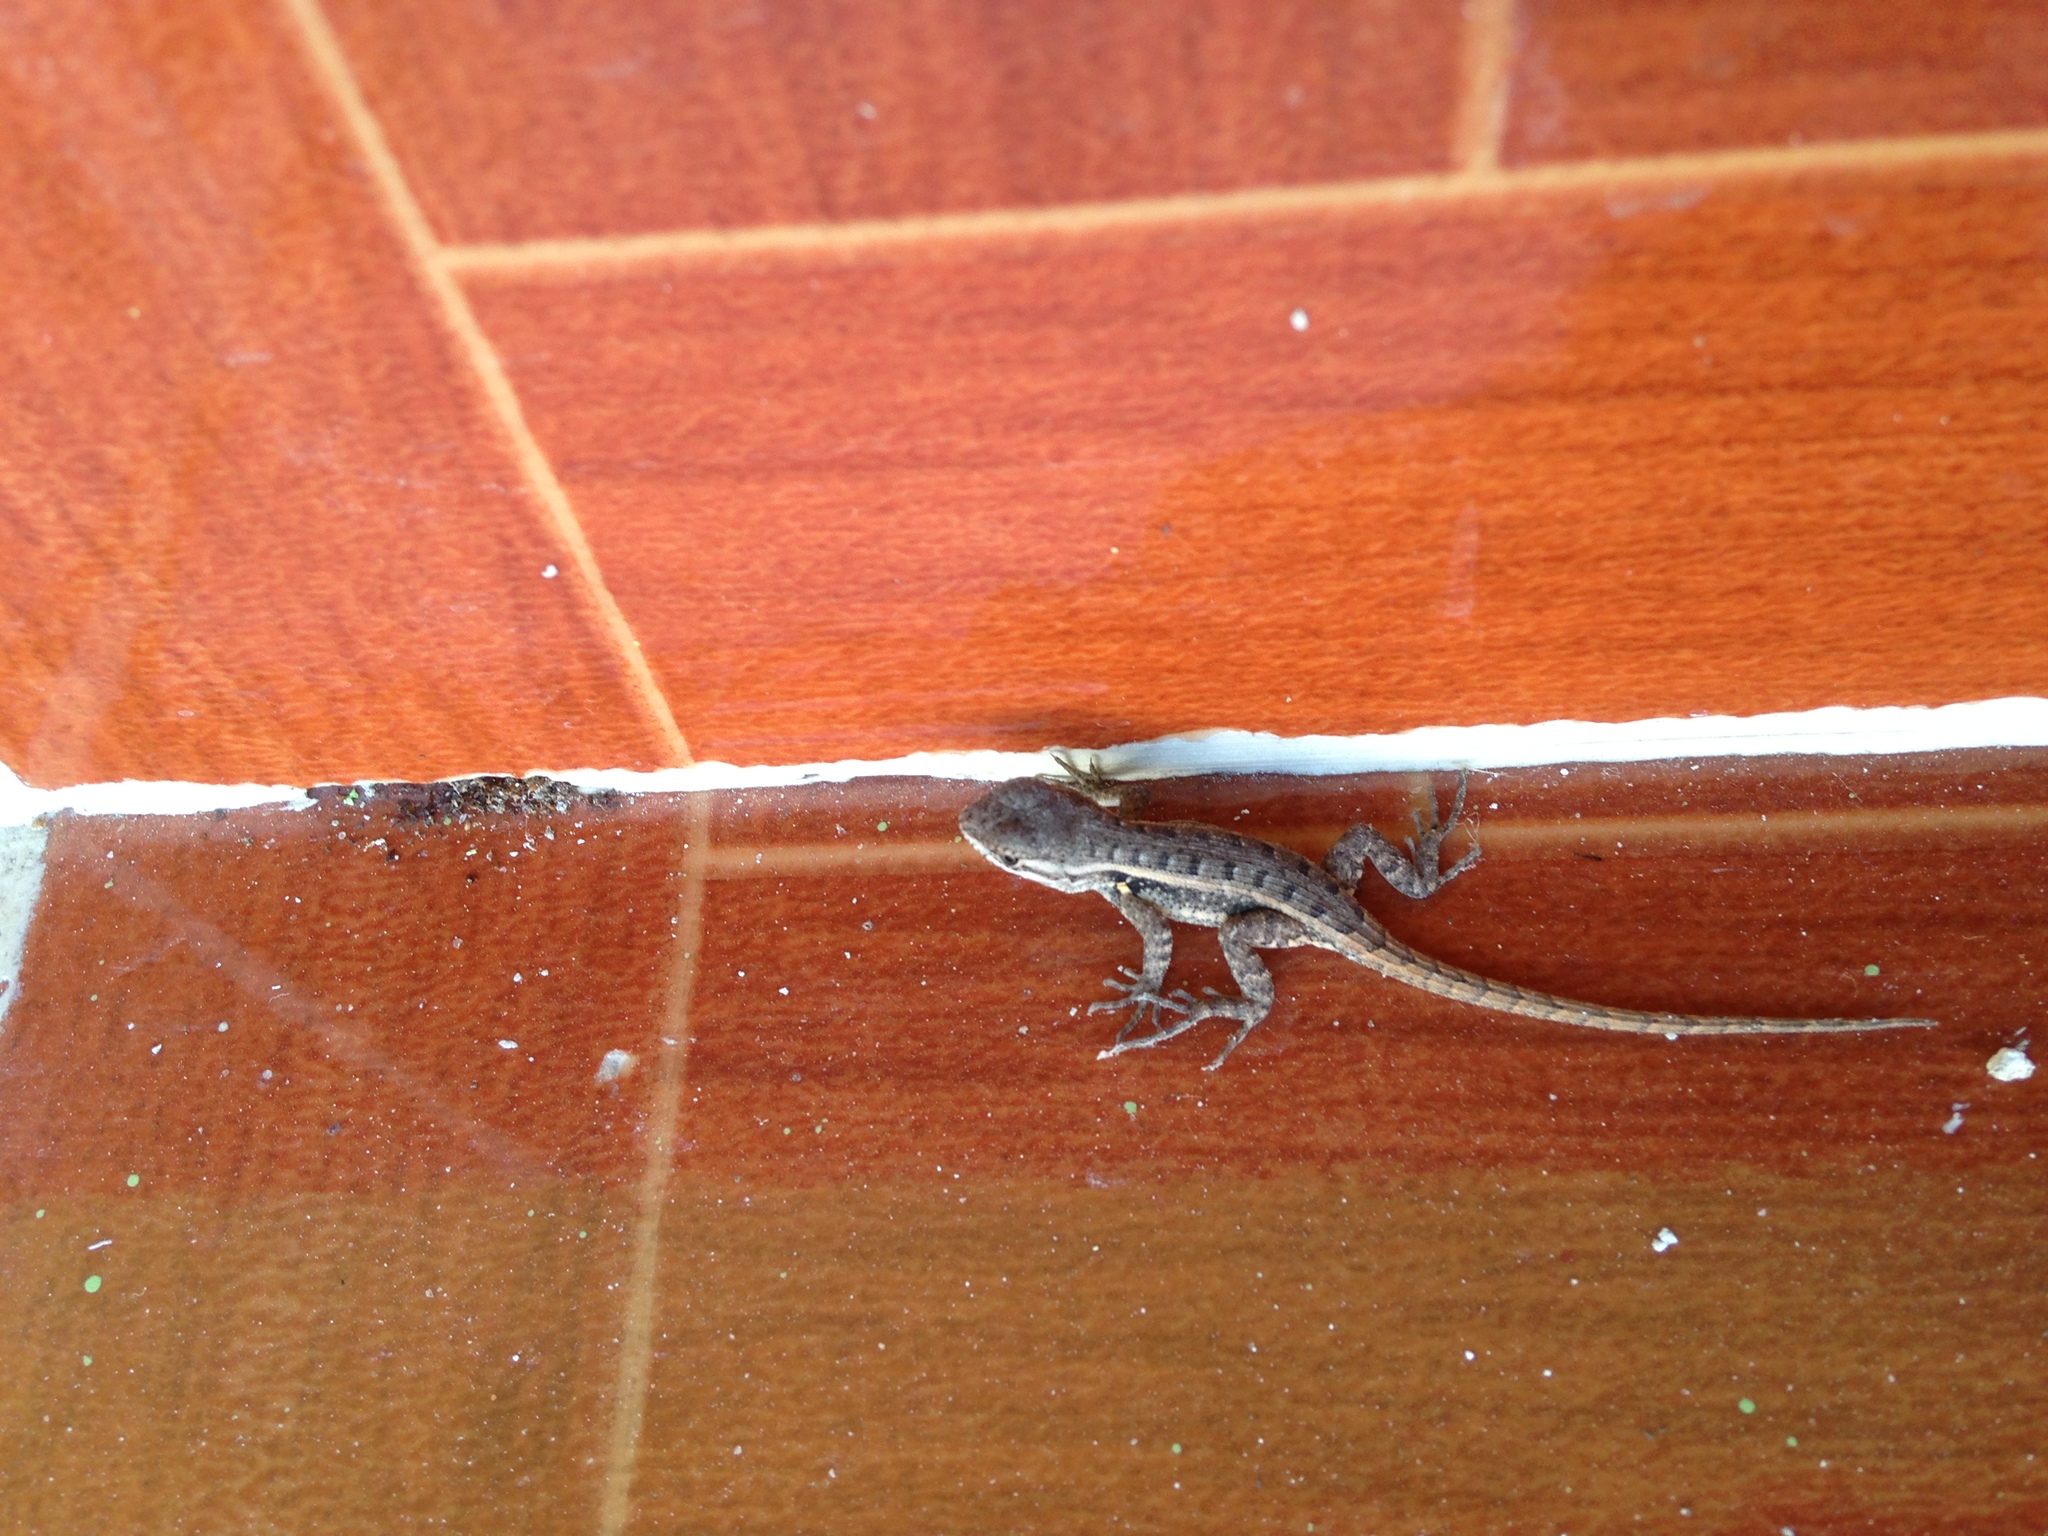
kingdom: Animalia
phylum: Chordata
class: Squamata
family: Phrynosomatidae
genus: Sceloporus
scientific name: Sceloporus variabilis
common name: Rosebelly lizard
